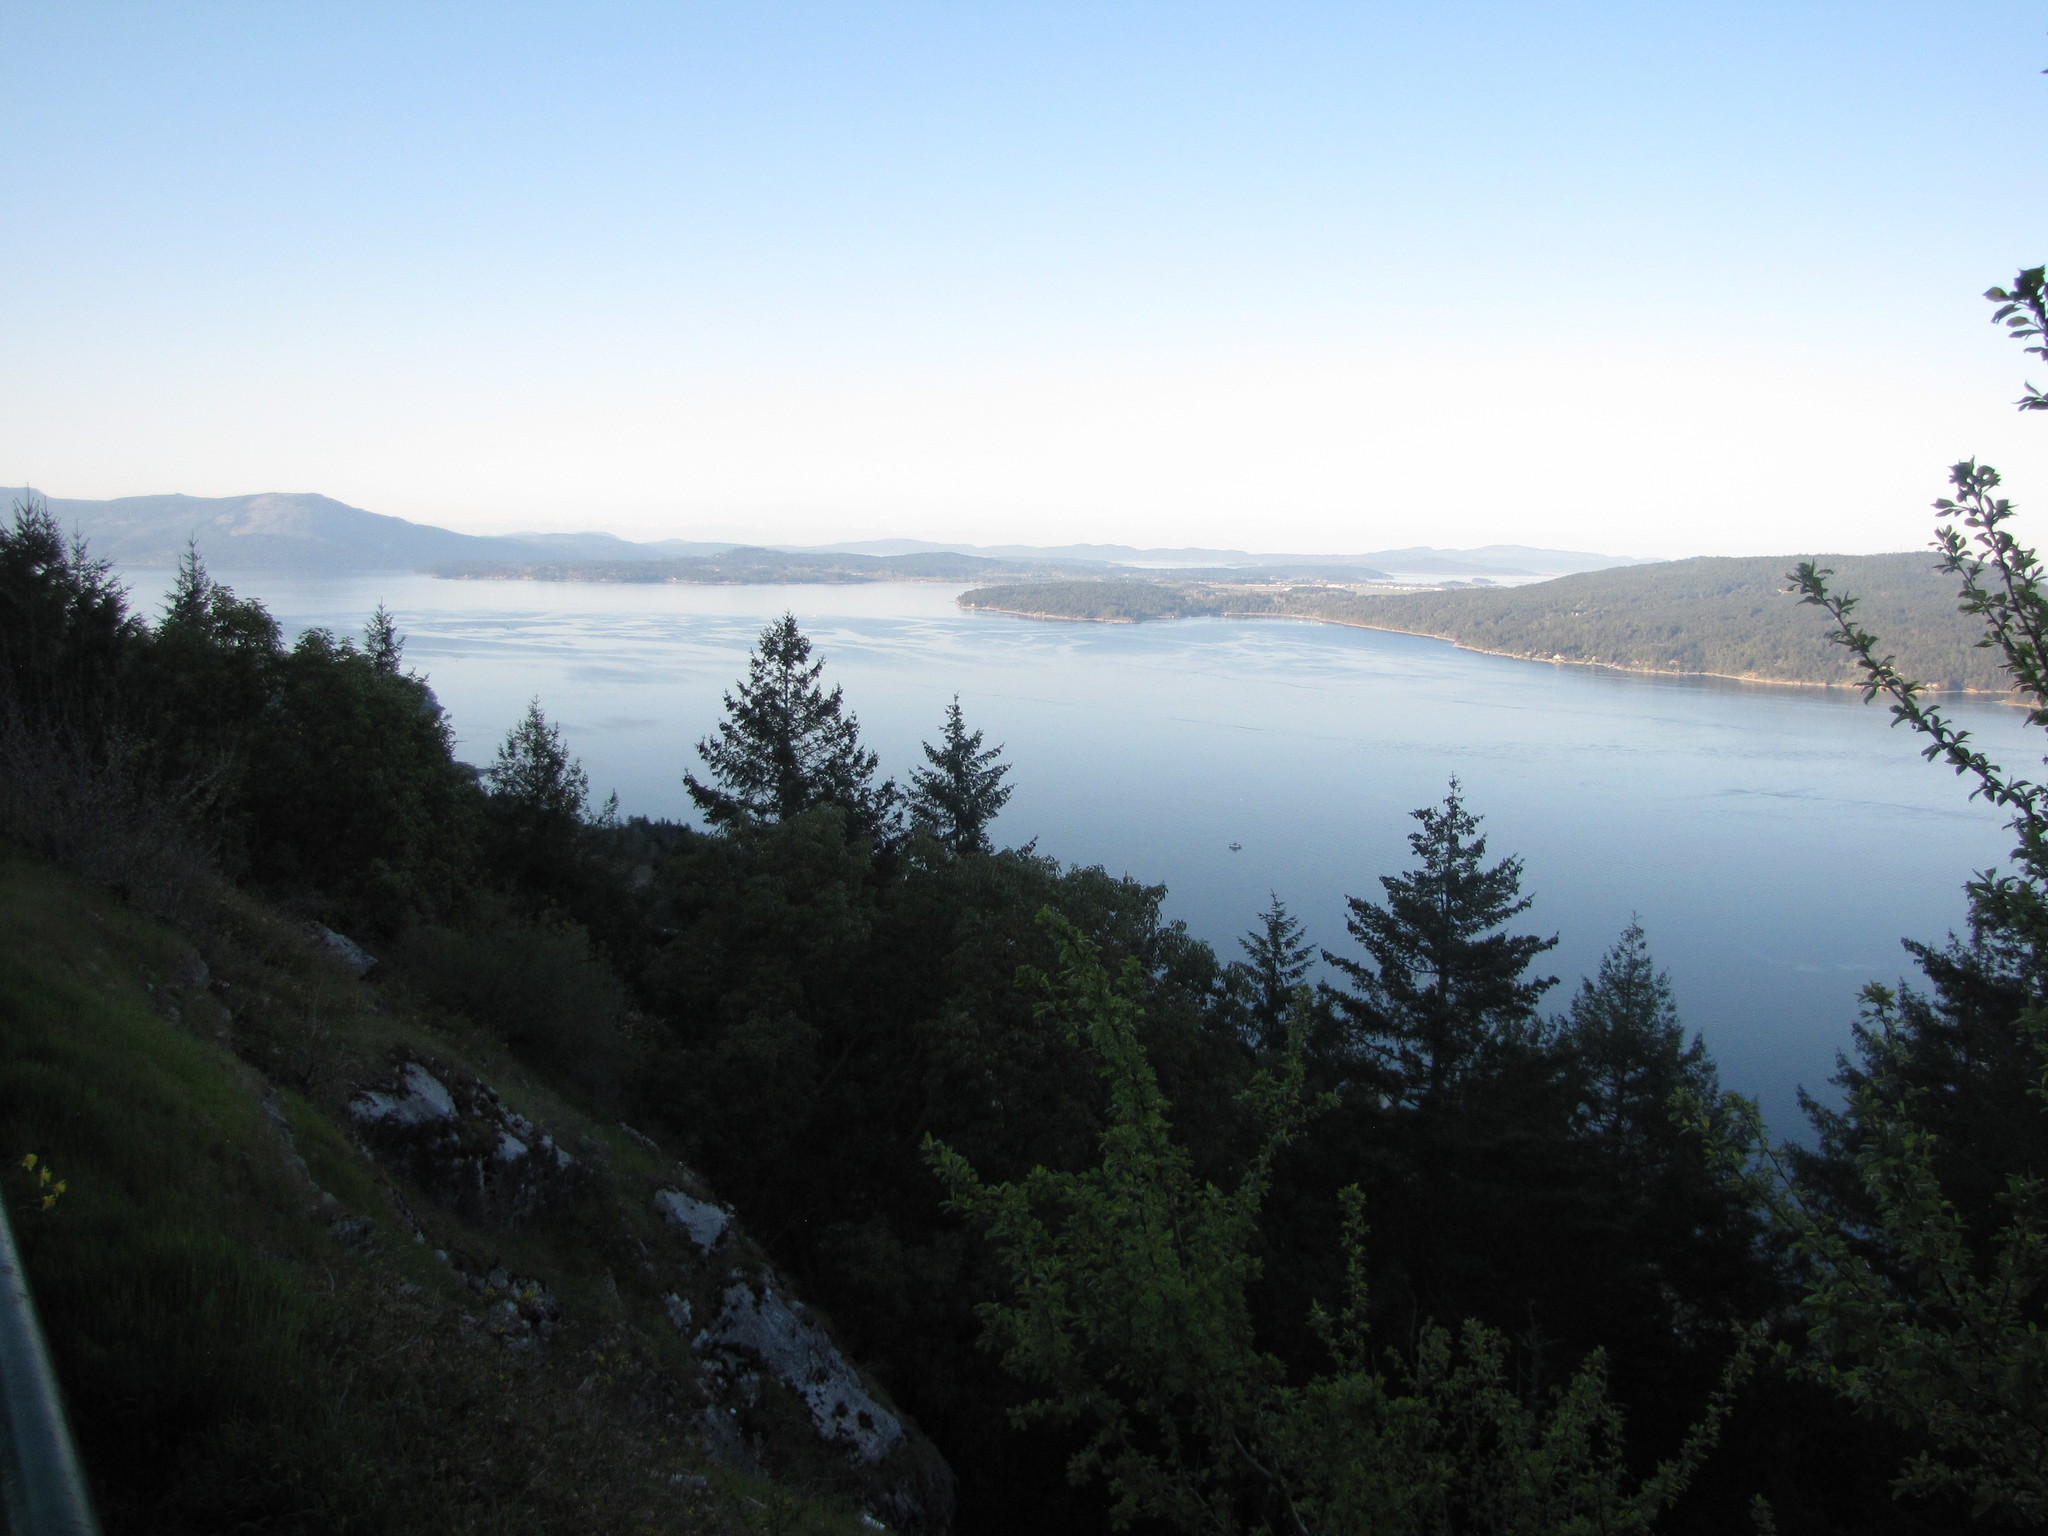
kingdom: Plantae
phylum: Tracheophyta
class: Pinopsida
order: Pinales
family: Pinaceae
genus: Pseudotsuga
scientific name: Pseudotsuga menziesii
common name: Douglas fir
